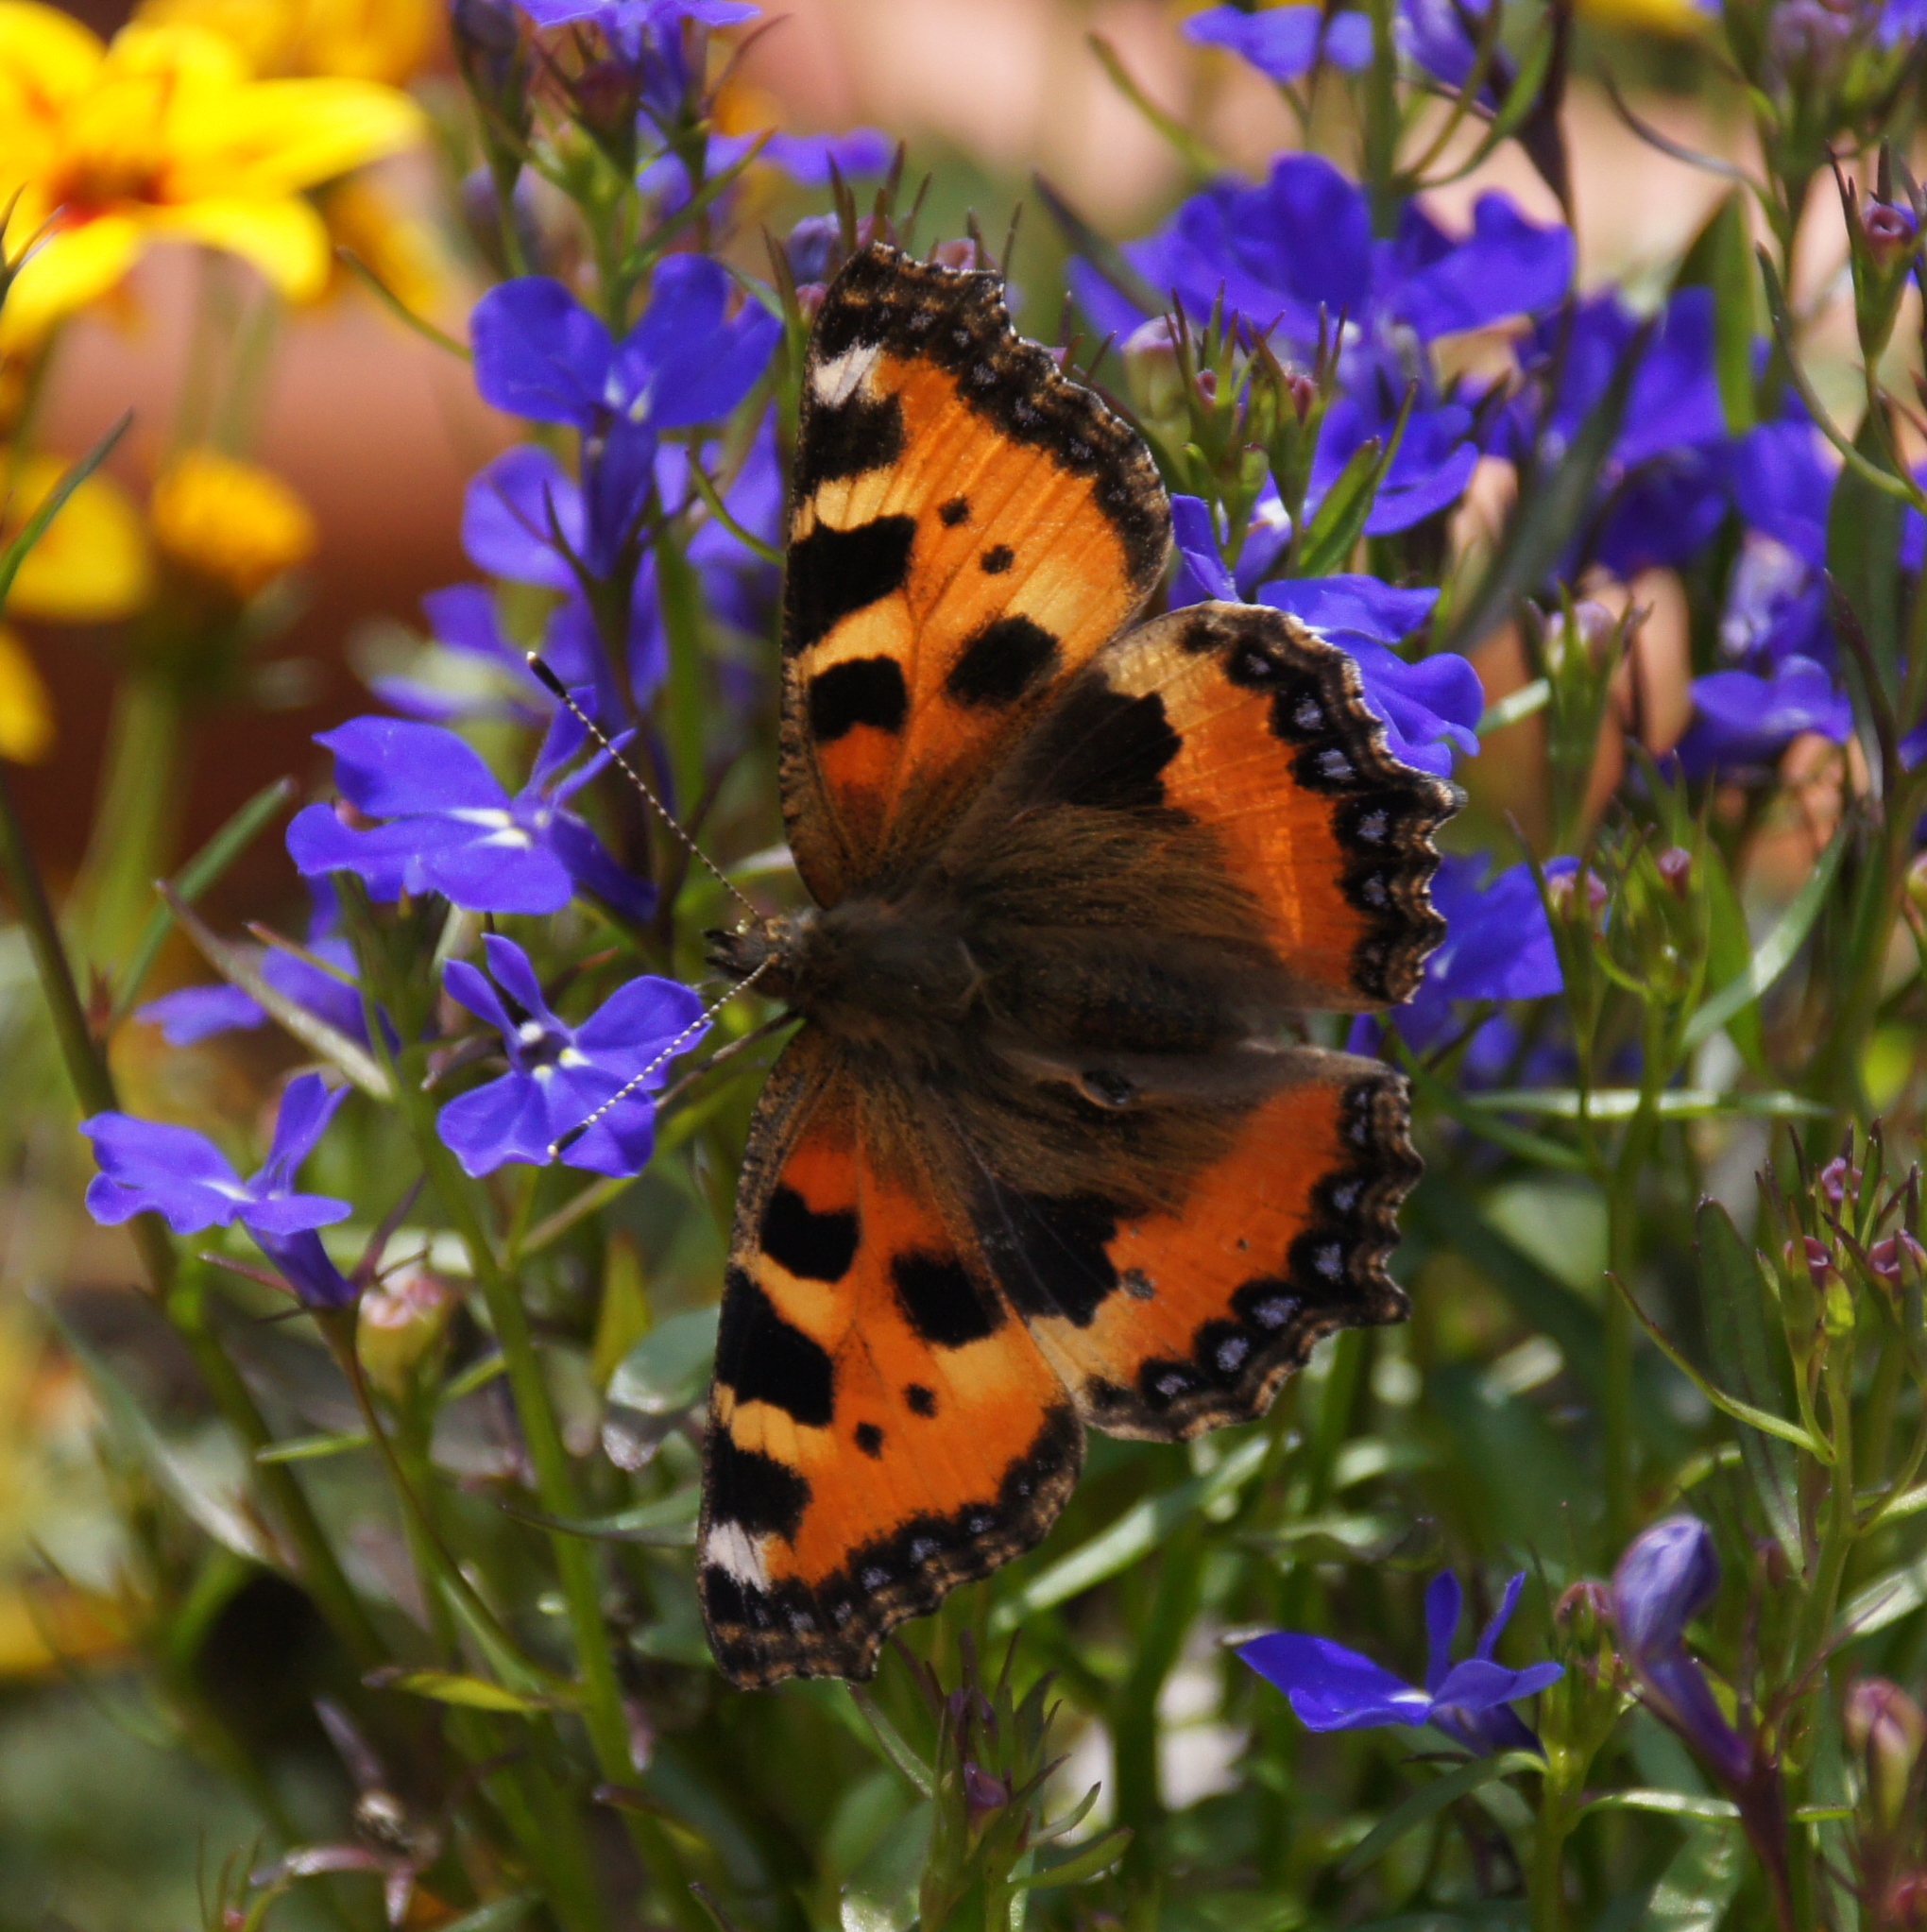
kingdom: Animalia
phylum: Arthropoda
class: Insecta
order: Lepidoptera
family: Nymphalidae
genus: Aglais
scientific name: Aglais urticae
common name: Small tortoiseshell
